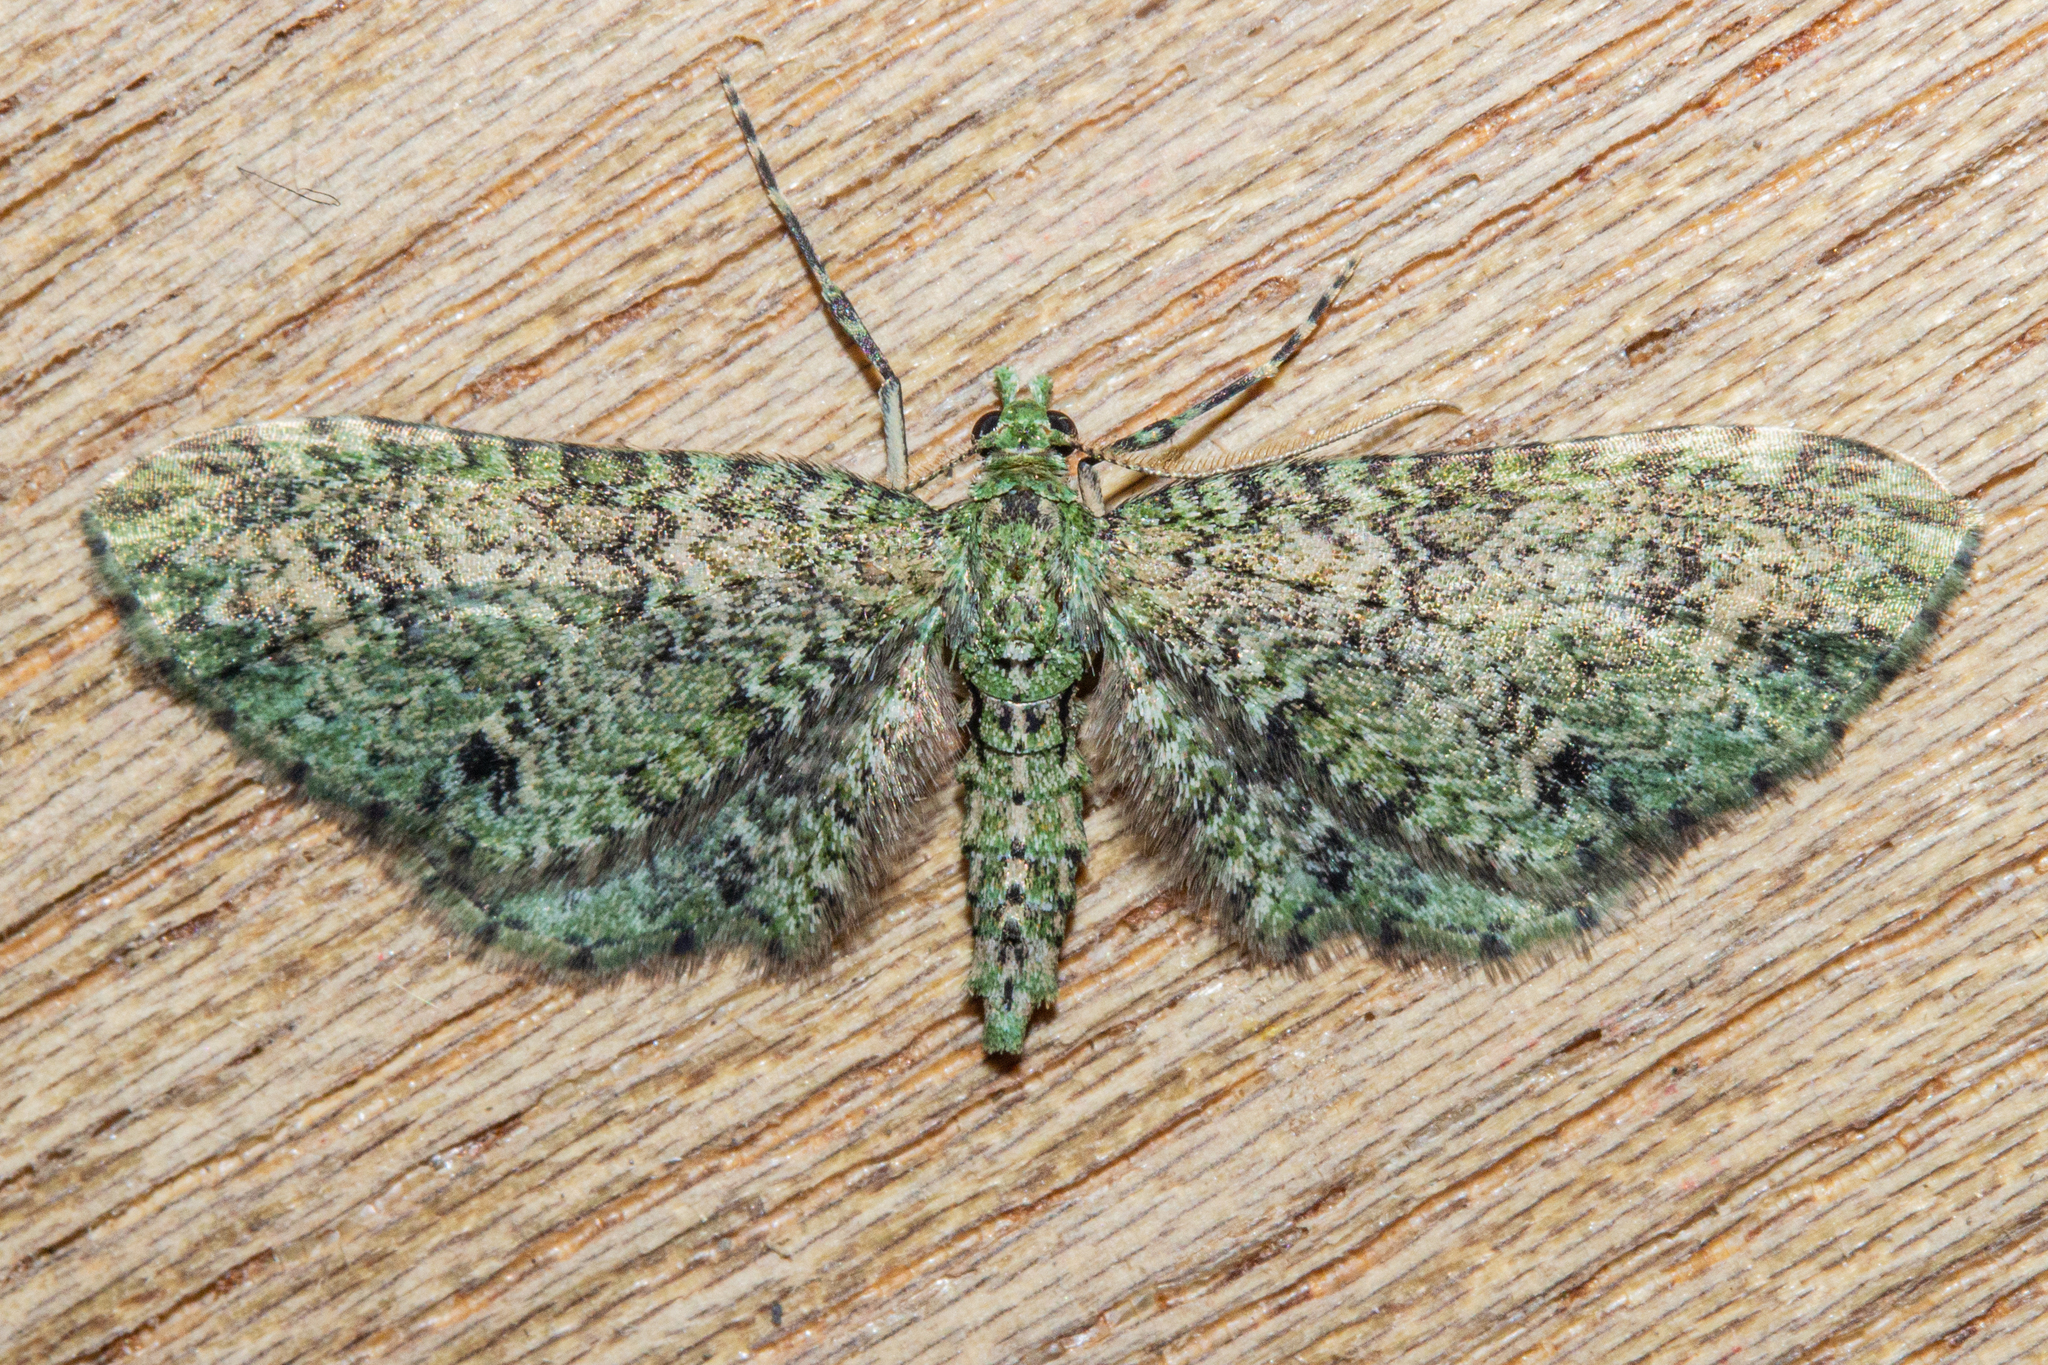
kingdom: Animalia
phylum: Arthropoda
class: Insecta
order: Lepidoptera
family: Geometridae
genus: Pasiphila
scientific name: Pasiphila cotinaea
